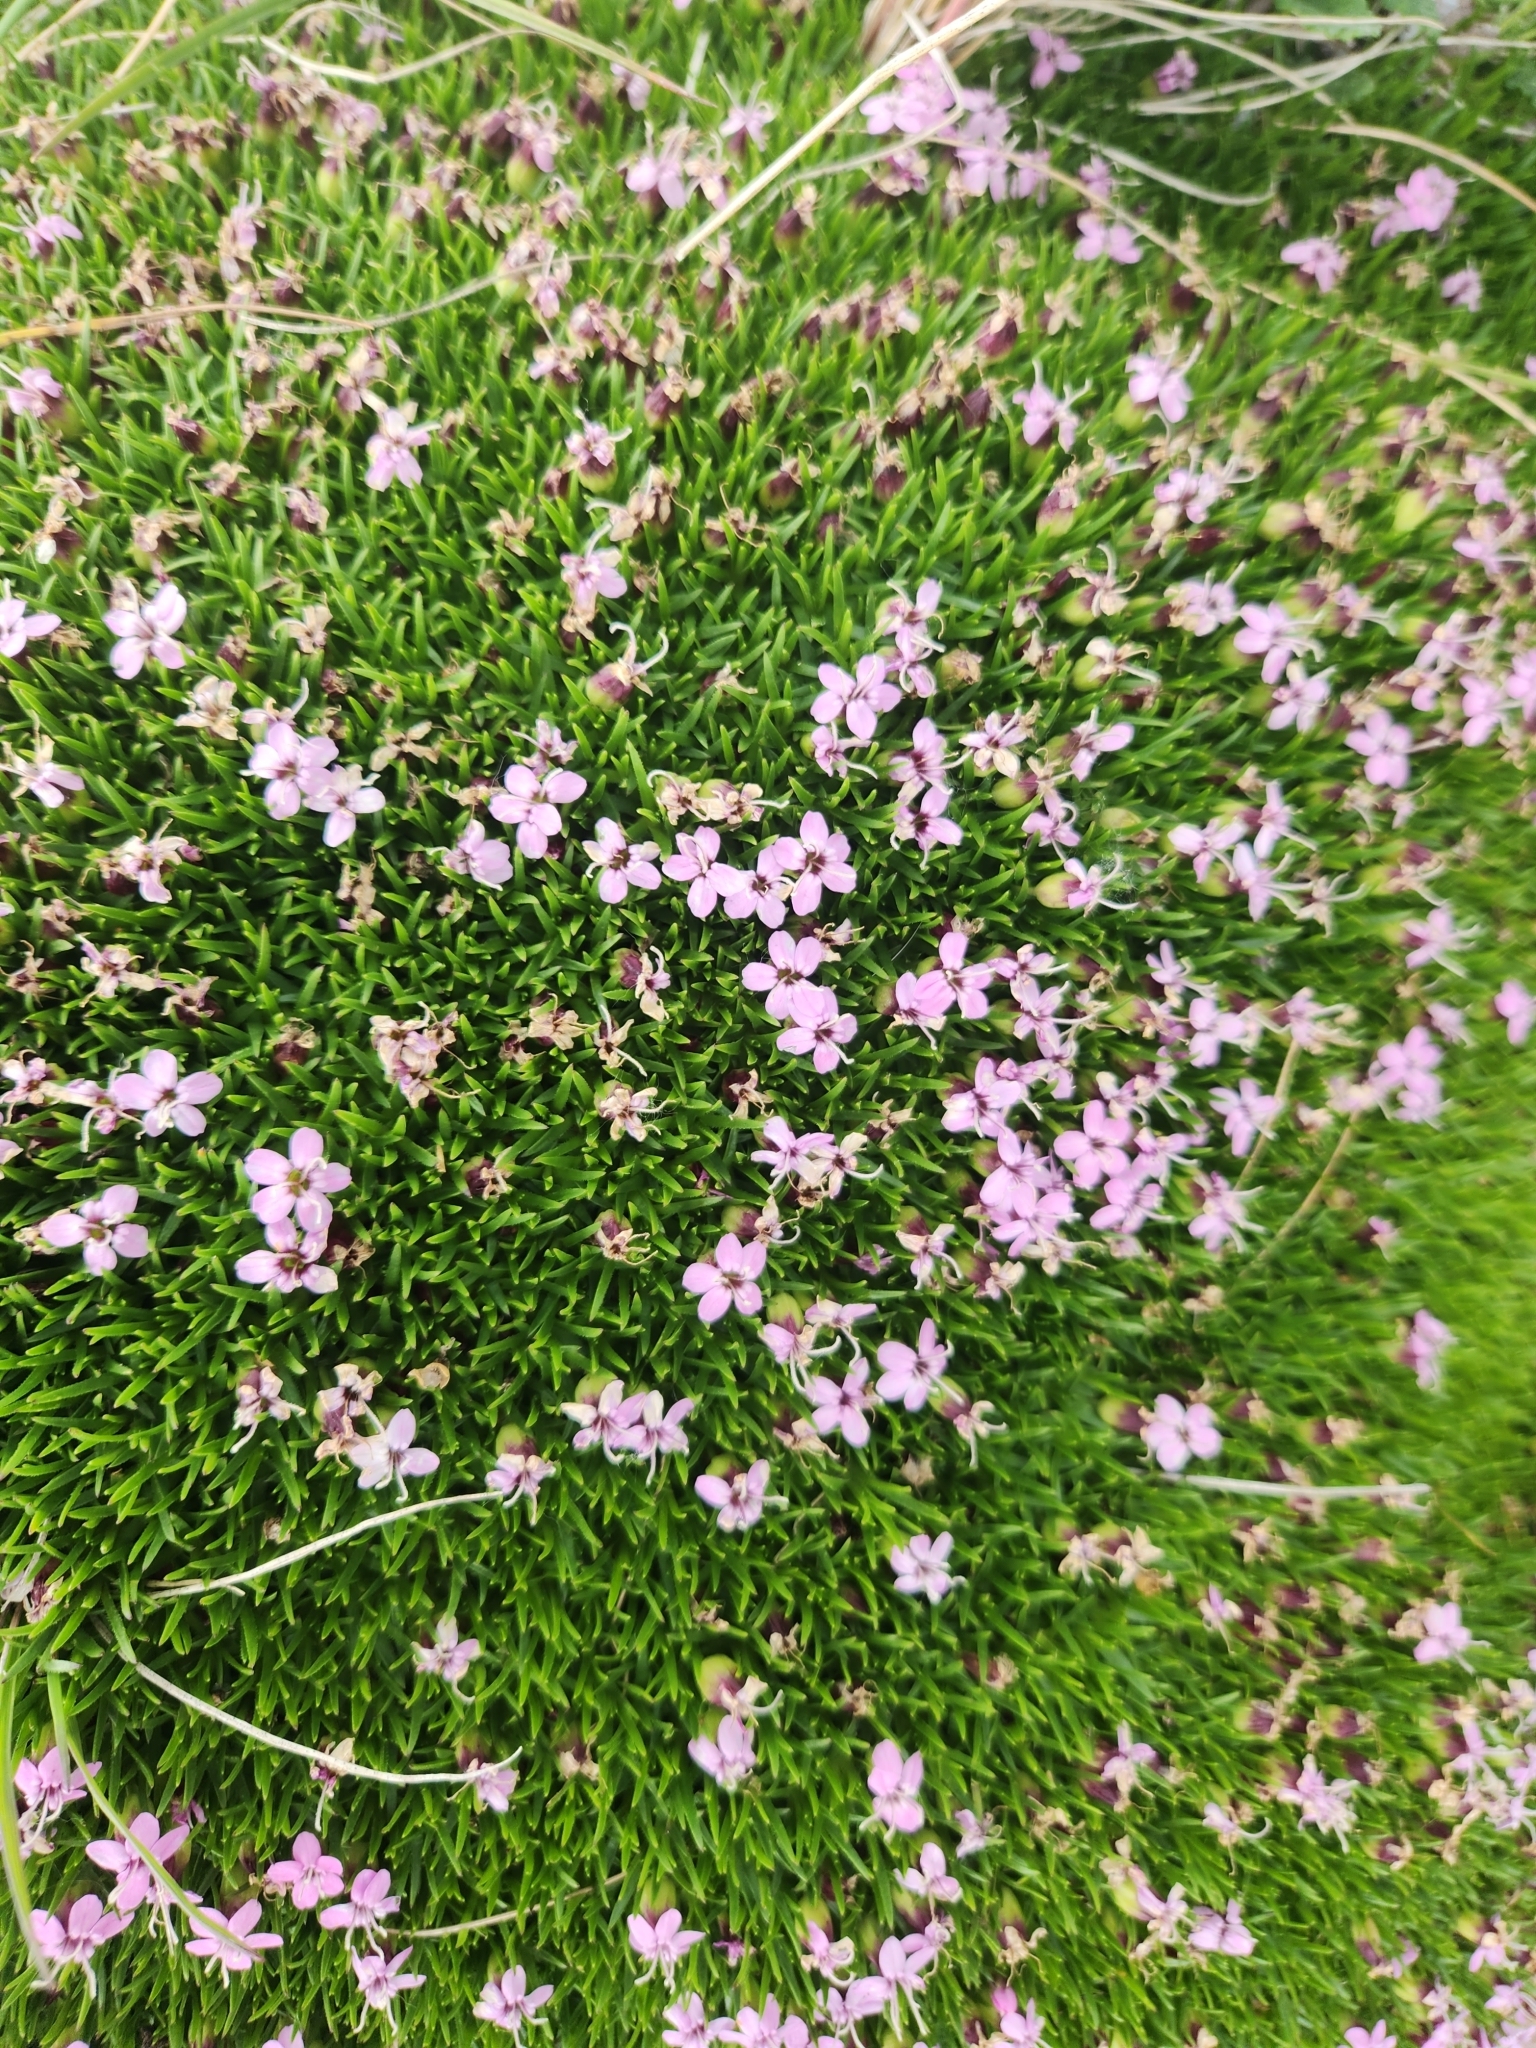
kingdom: Plantae
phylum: Tracheophyta
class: Magnoliopsida
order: Caryophyllales
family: Caryophyllaceae
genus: Silene
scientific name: Silene acaulis
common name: Moss campion
